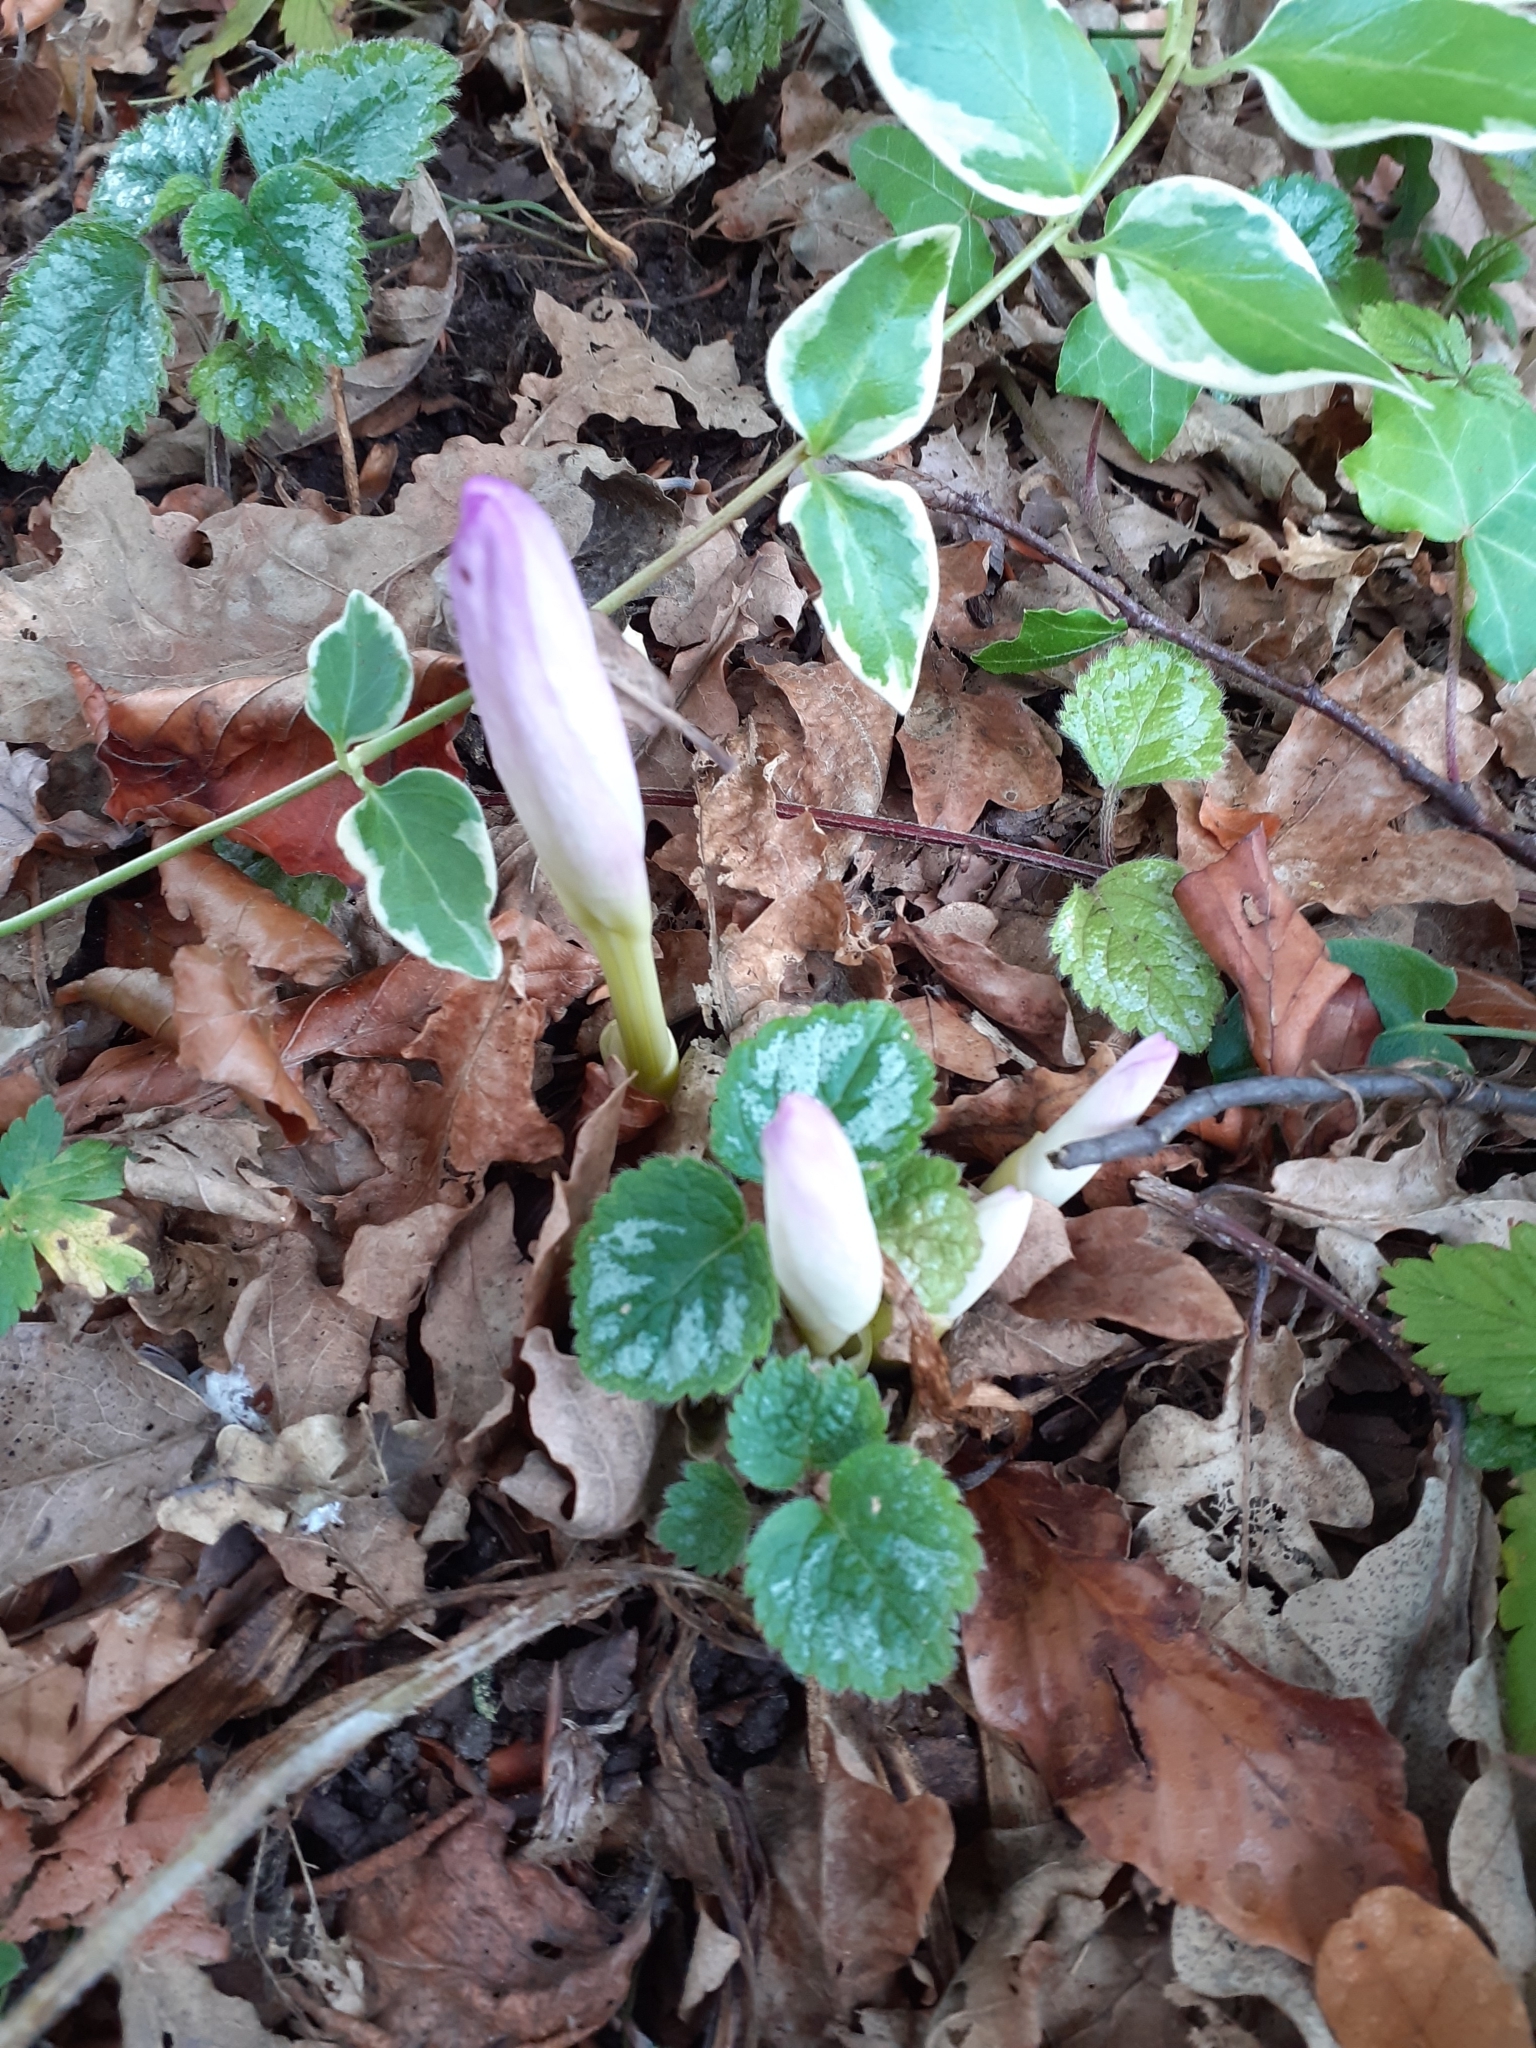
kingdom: Plantae
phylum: Tracheophyta
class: Liliopsida
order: Liliales
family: Colchicaceae
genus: Colchicum
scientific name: Colchicum autumnale
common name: Autumn crocus
